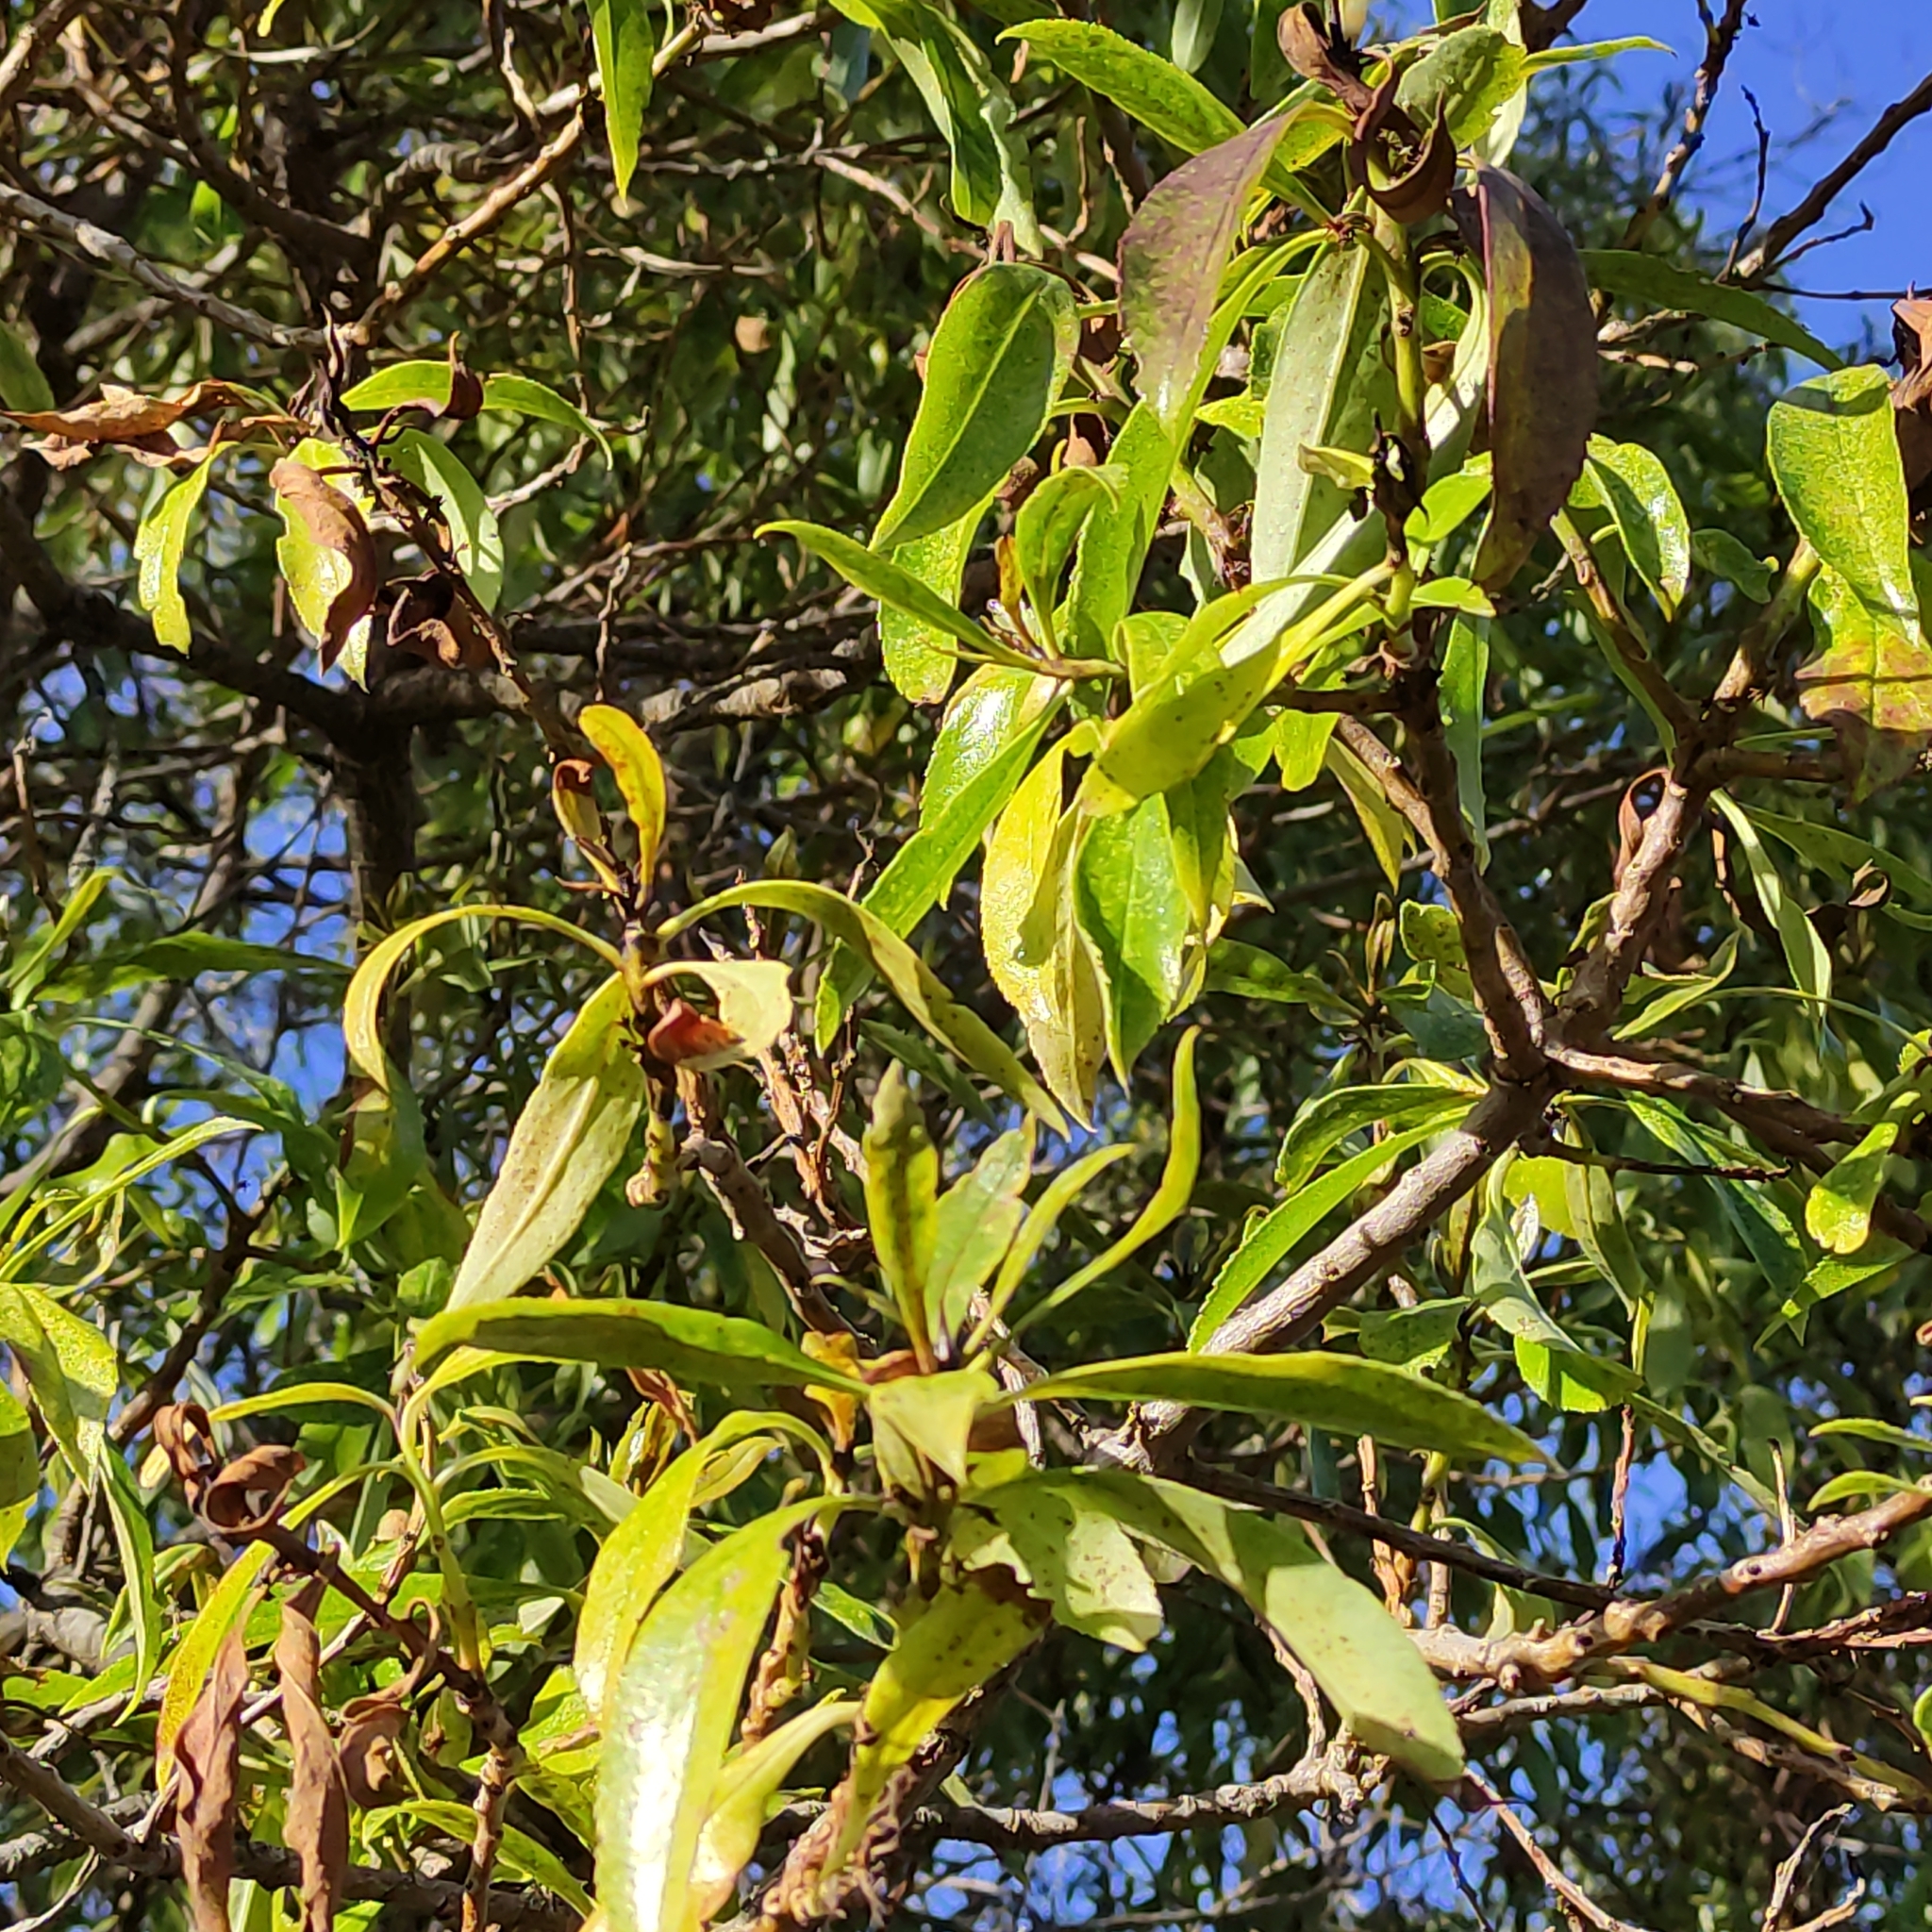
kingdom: Plantae
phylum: Tracheophyta
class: Magnoliopsida
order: Lamiales
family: Scrophulariaceae
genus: Myoporum
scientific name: Myoporum laetum
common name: Ngaio tree
